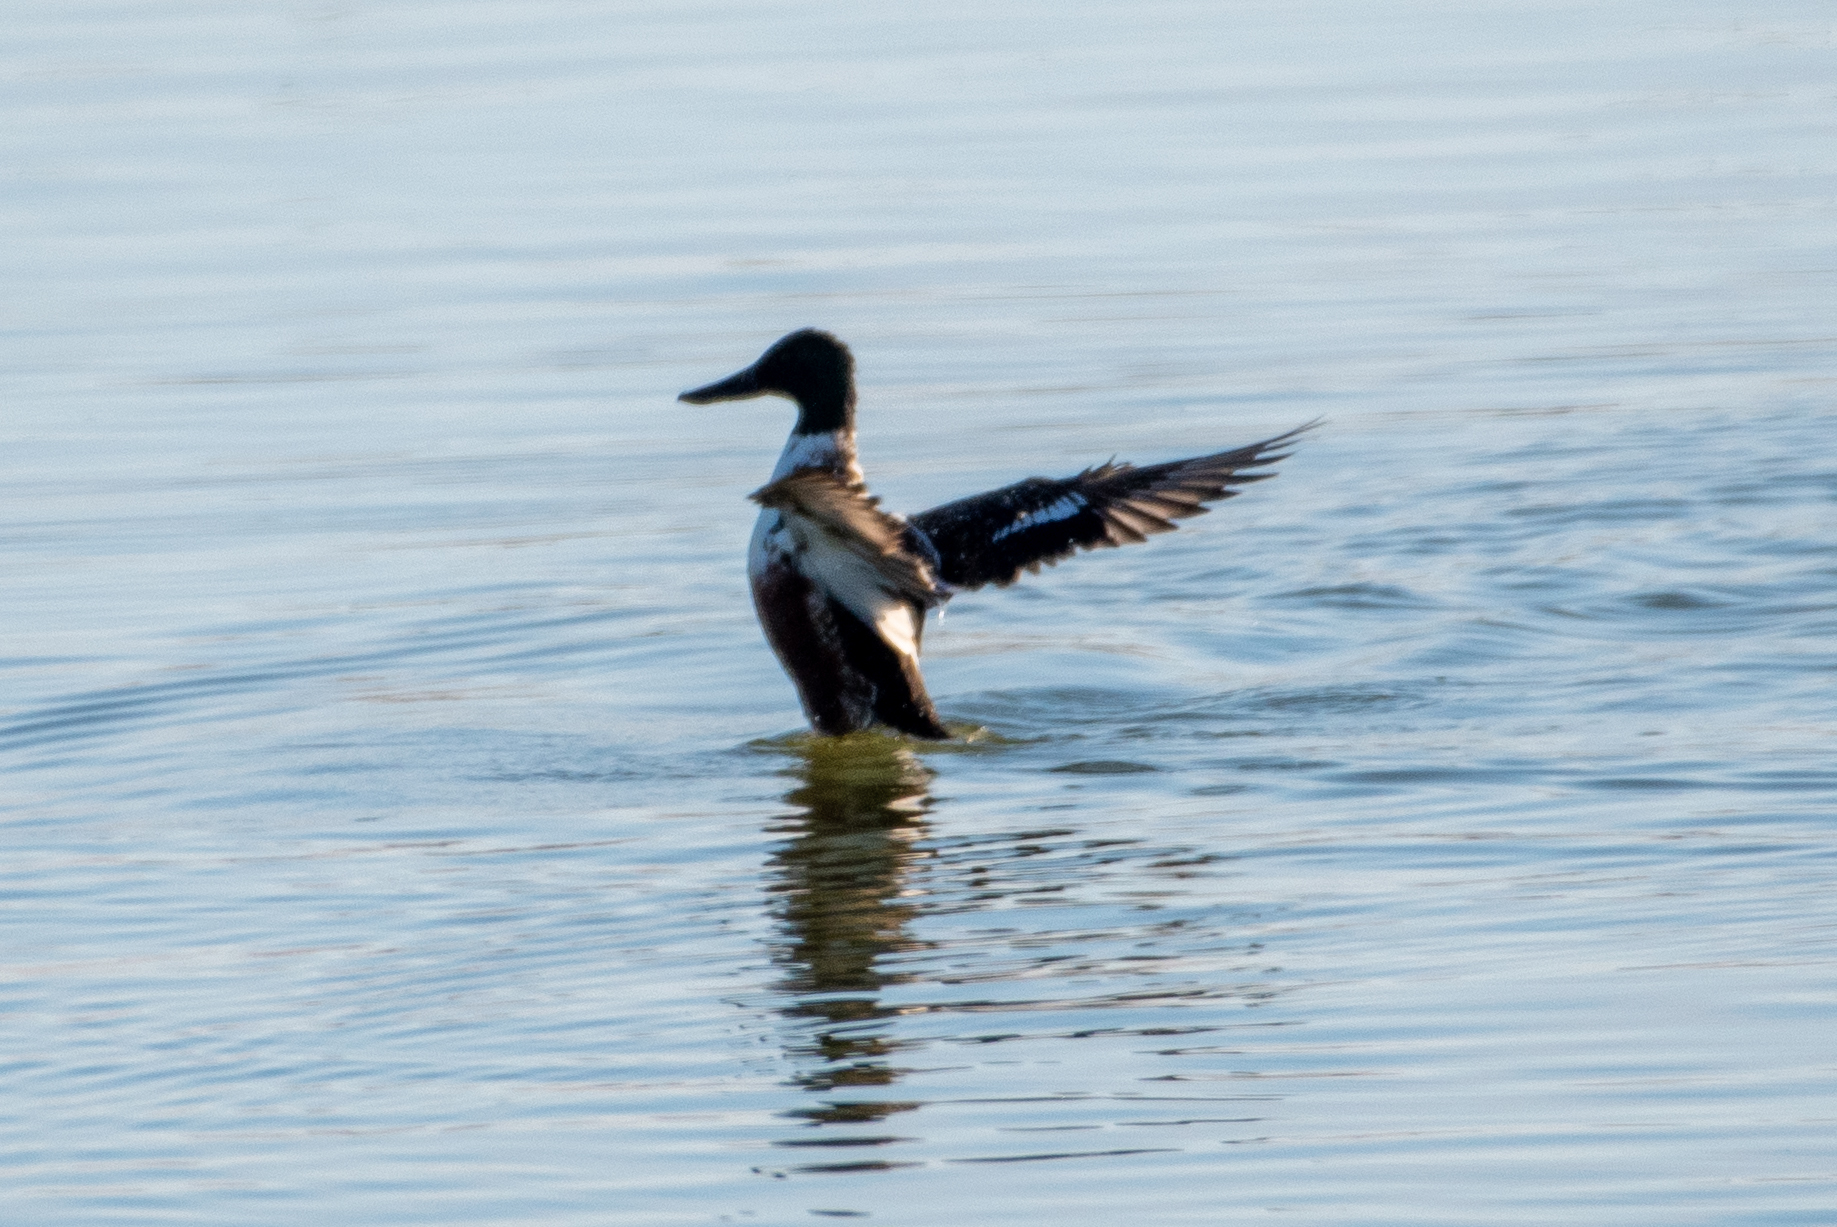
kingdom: Animalia
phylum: Chordata
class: Aves
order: Anseriformes
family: Anatidae
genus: Spatula
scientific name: Spatula clypeata
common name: Northern shoveler
